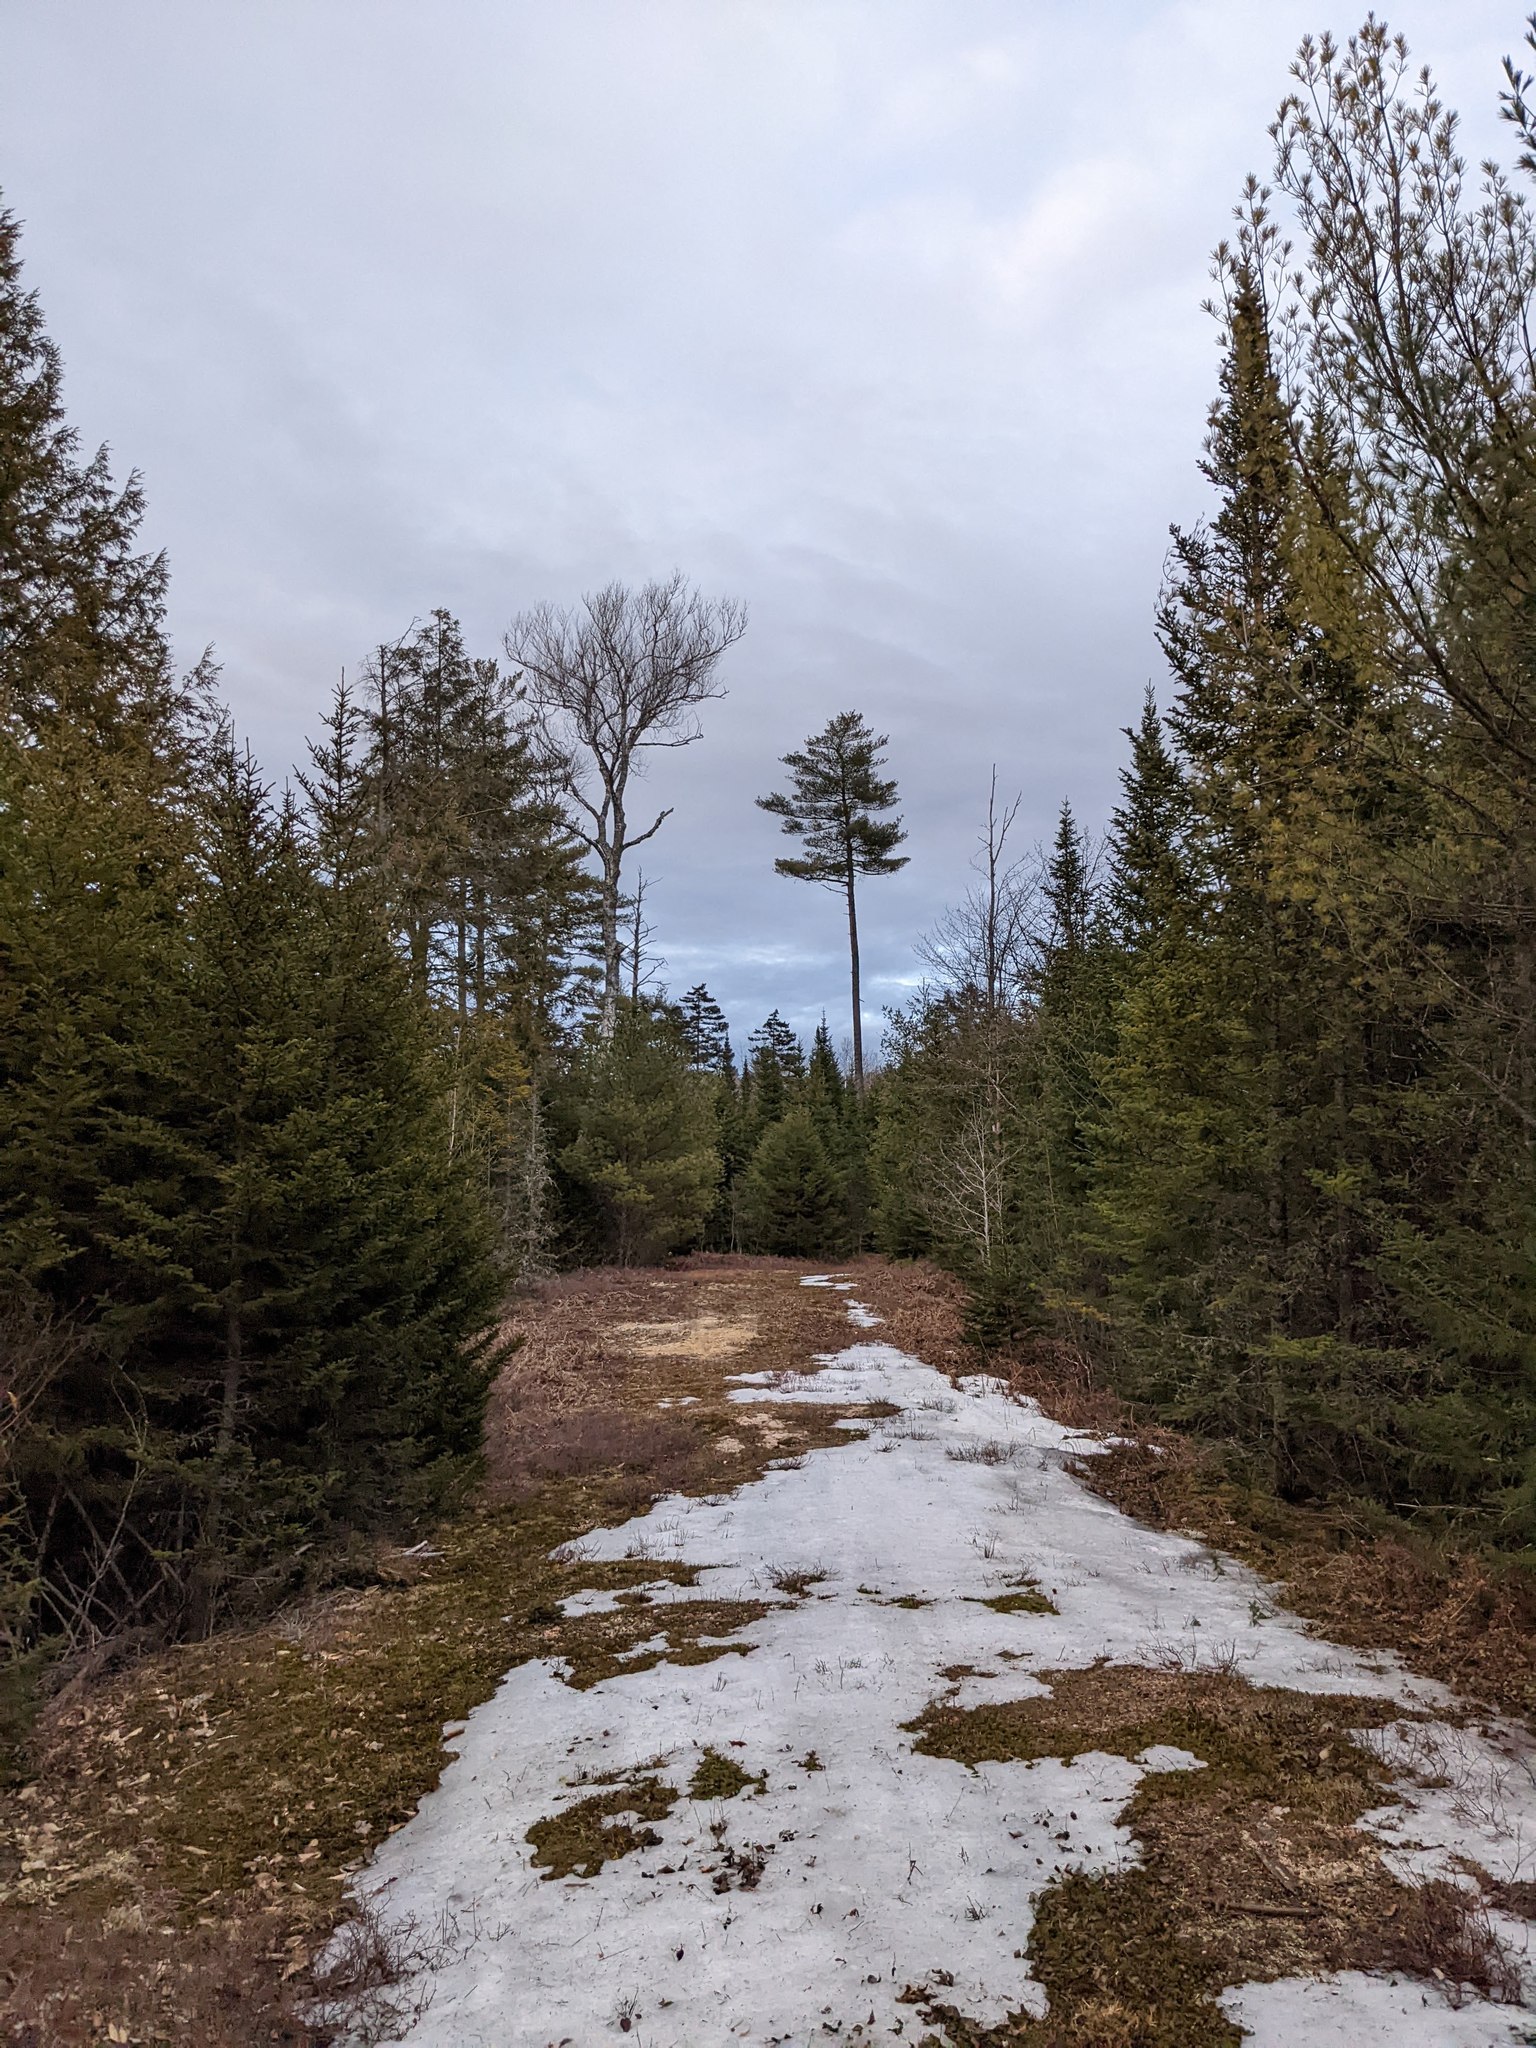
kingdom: Plantae
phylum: Tracheophyta
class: Pinopsida
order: Pinales
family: Pinaceae
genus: Pinus
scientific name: Pinus strobus
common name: Weymouth pine
